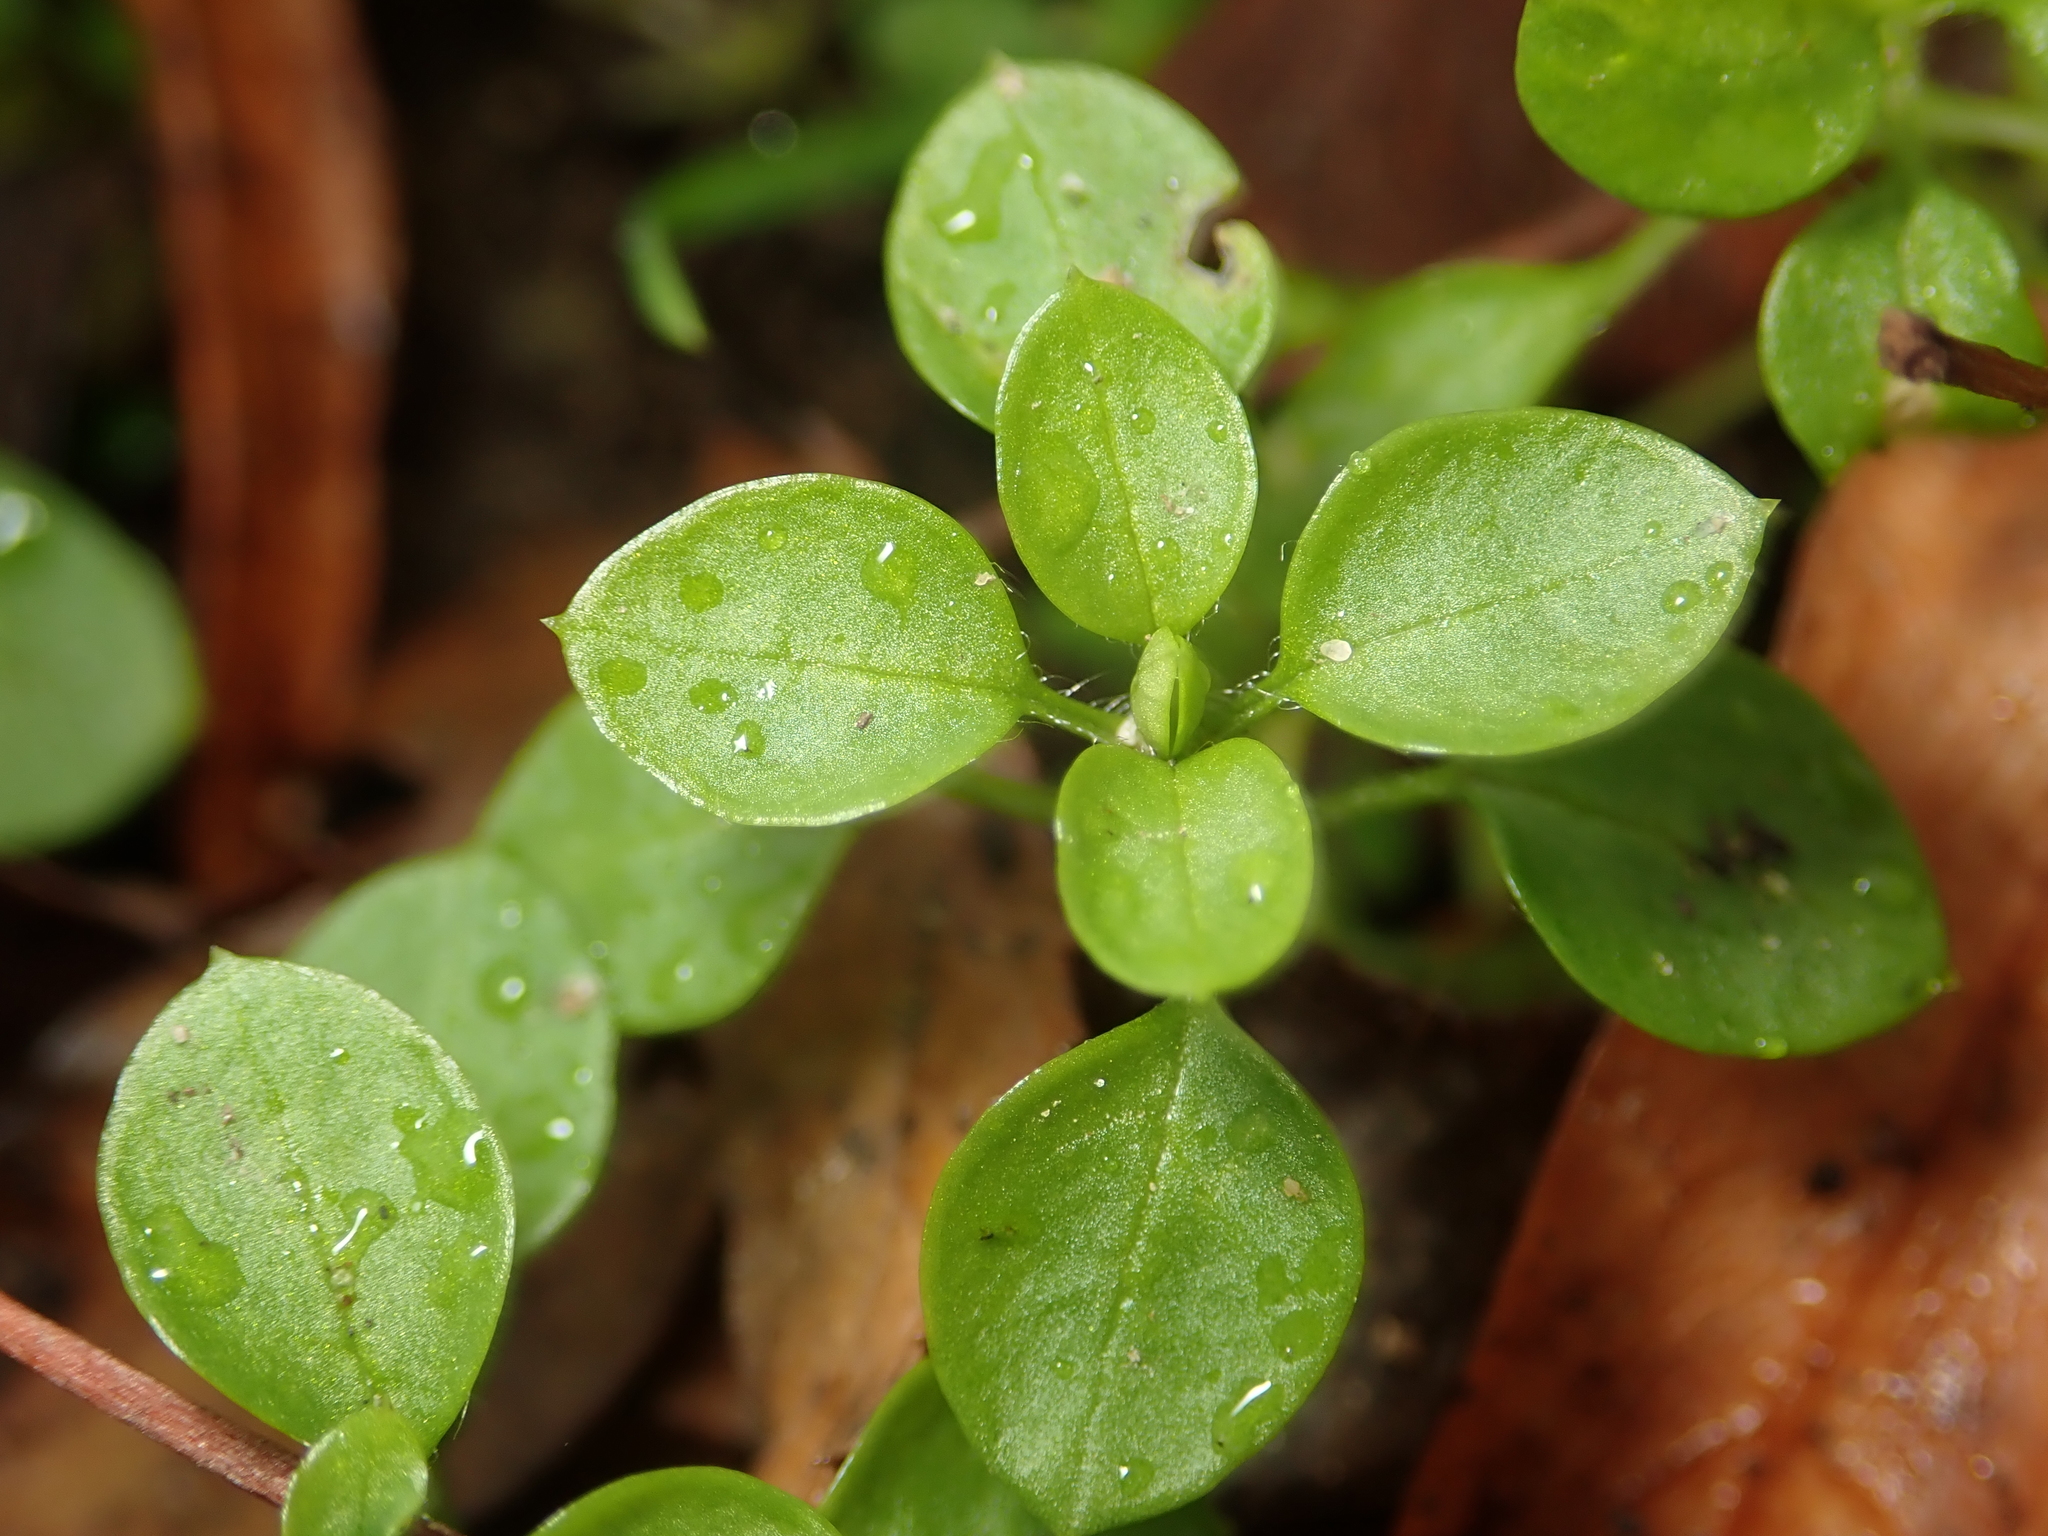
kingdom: Plantae
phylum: Tracheophyta
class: Magnoliopsida
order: Caryophyllales
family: Caryophyllaceae
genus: Stellaria
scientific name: Stellaria media
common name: Common chickweed
